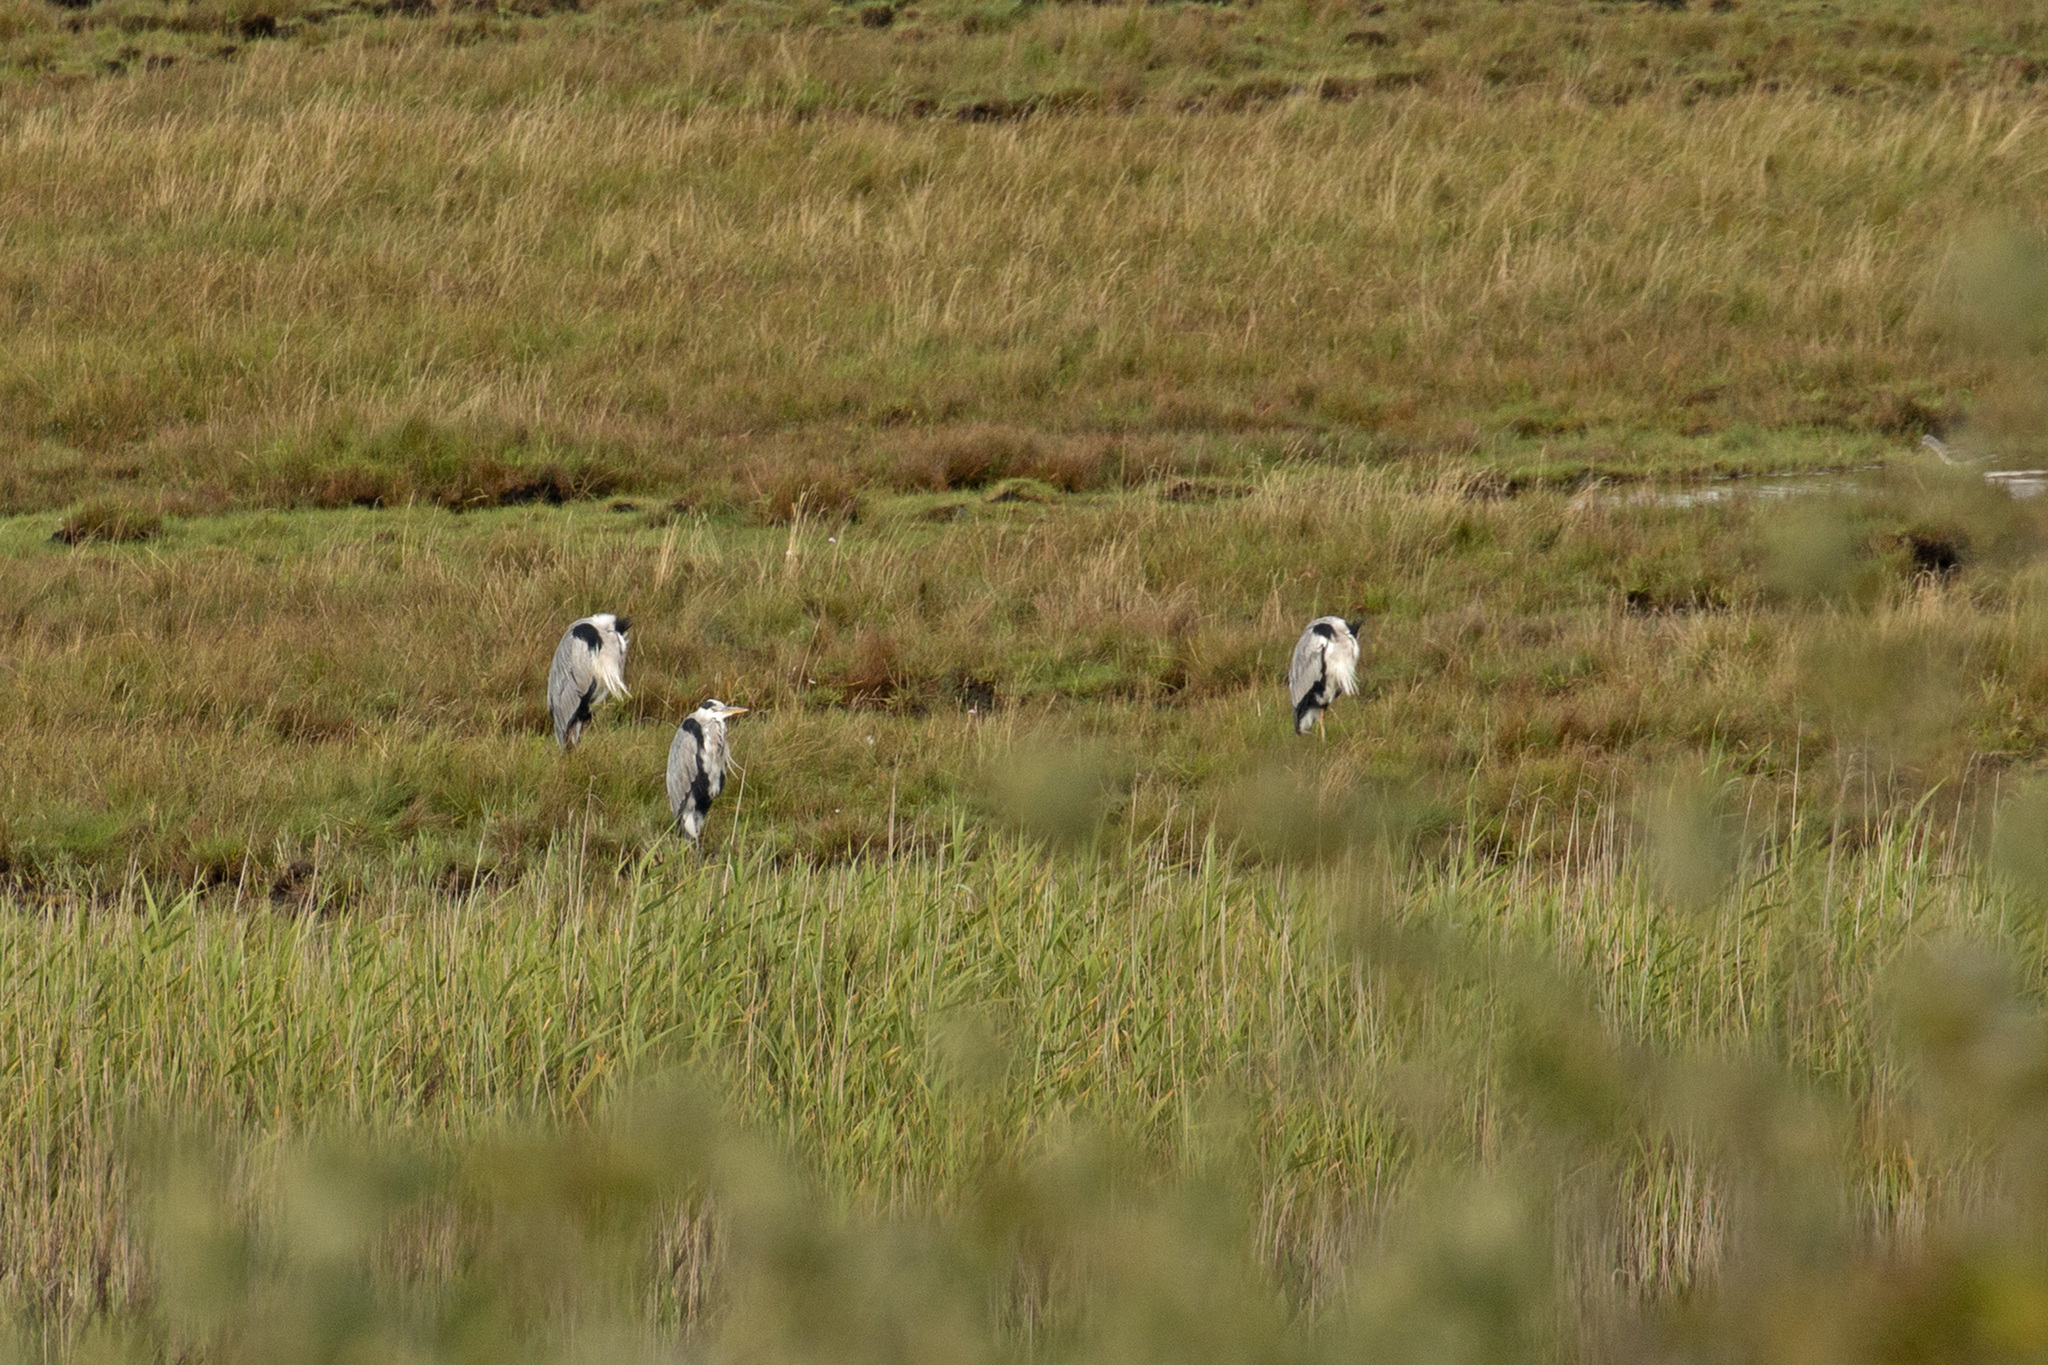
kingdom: Animalia
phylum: Chordata
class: Aves
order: Pelecaniformes
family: Ardeidae
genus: Ardea
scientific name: Ardea cinerea
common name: Grey heron
